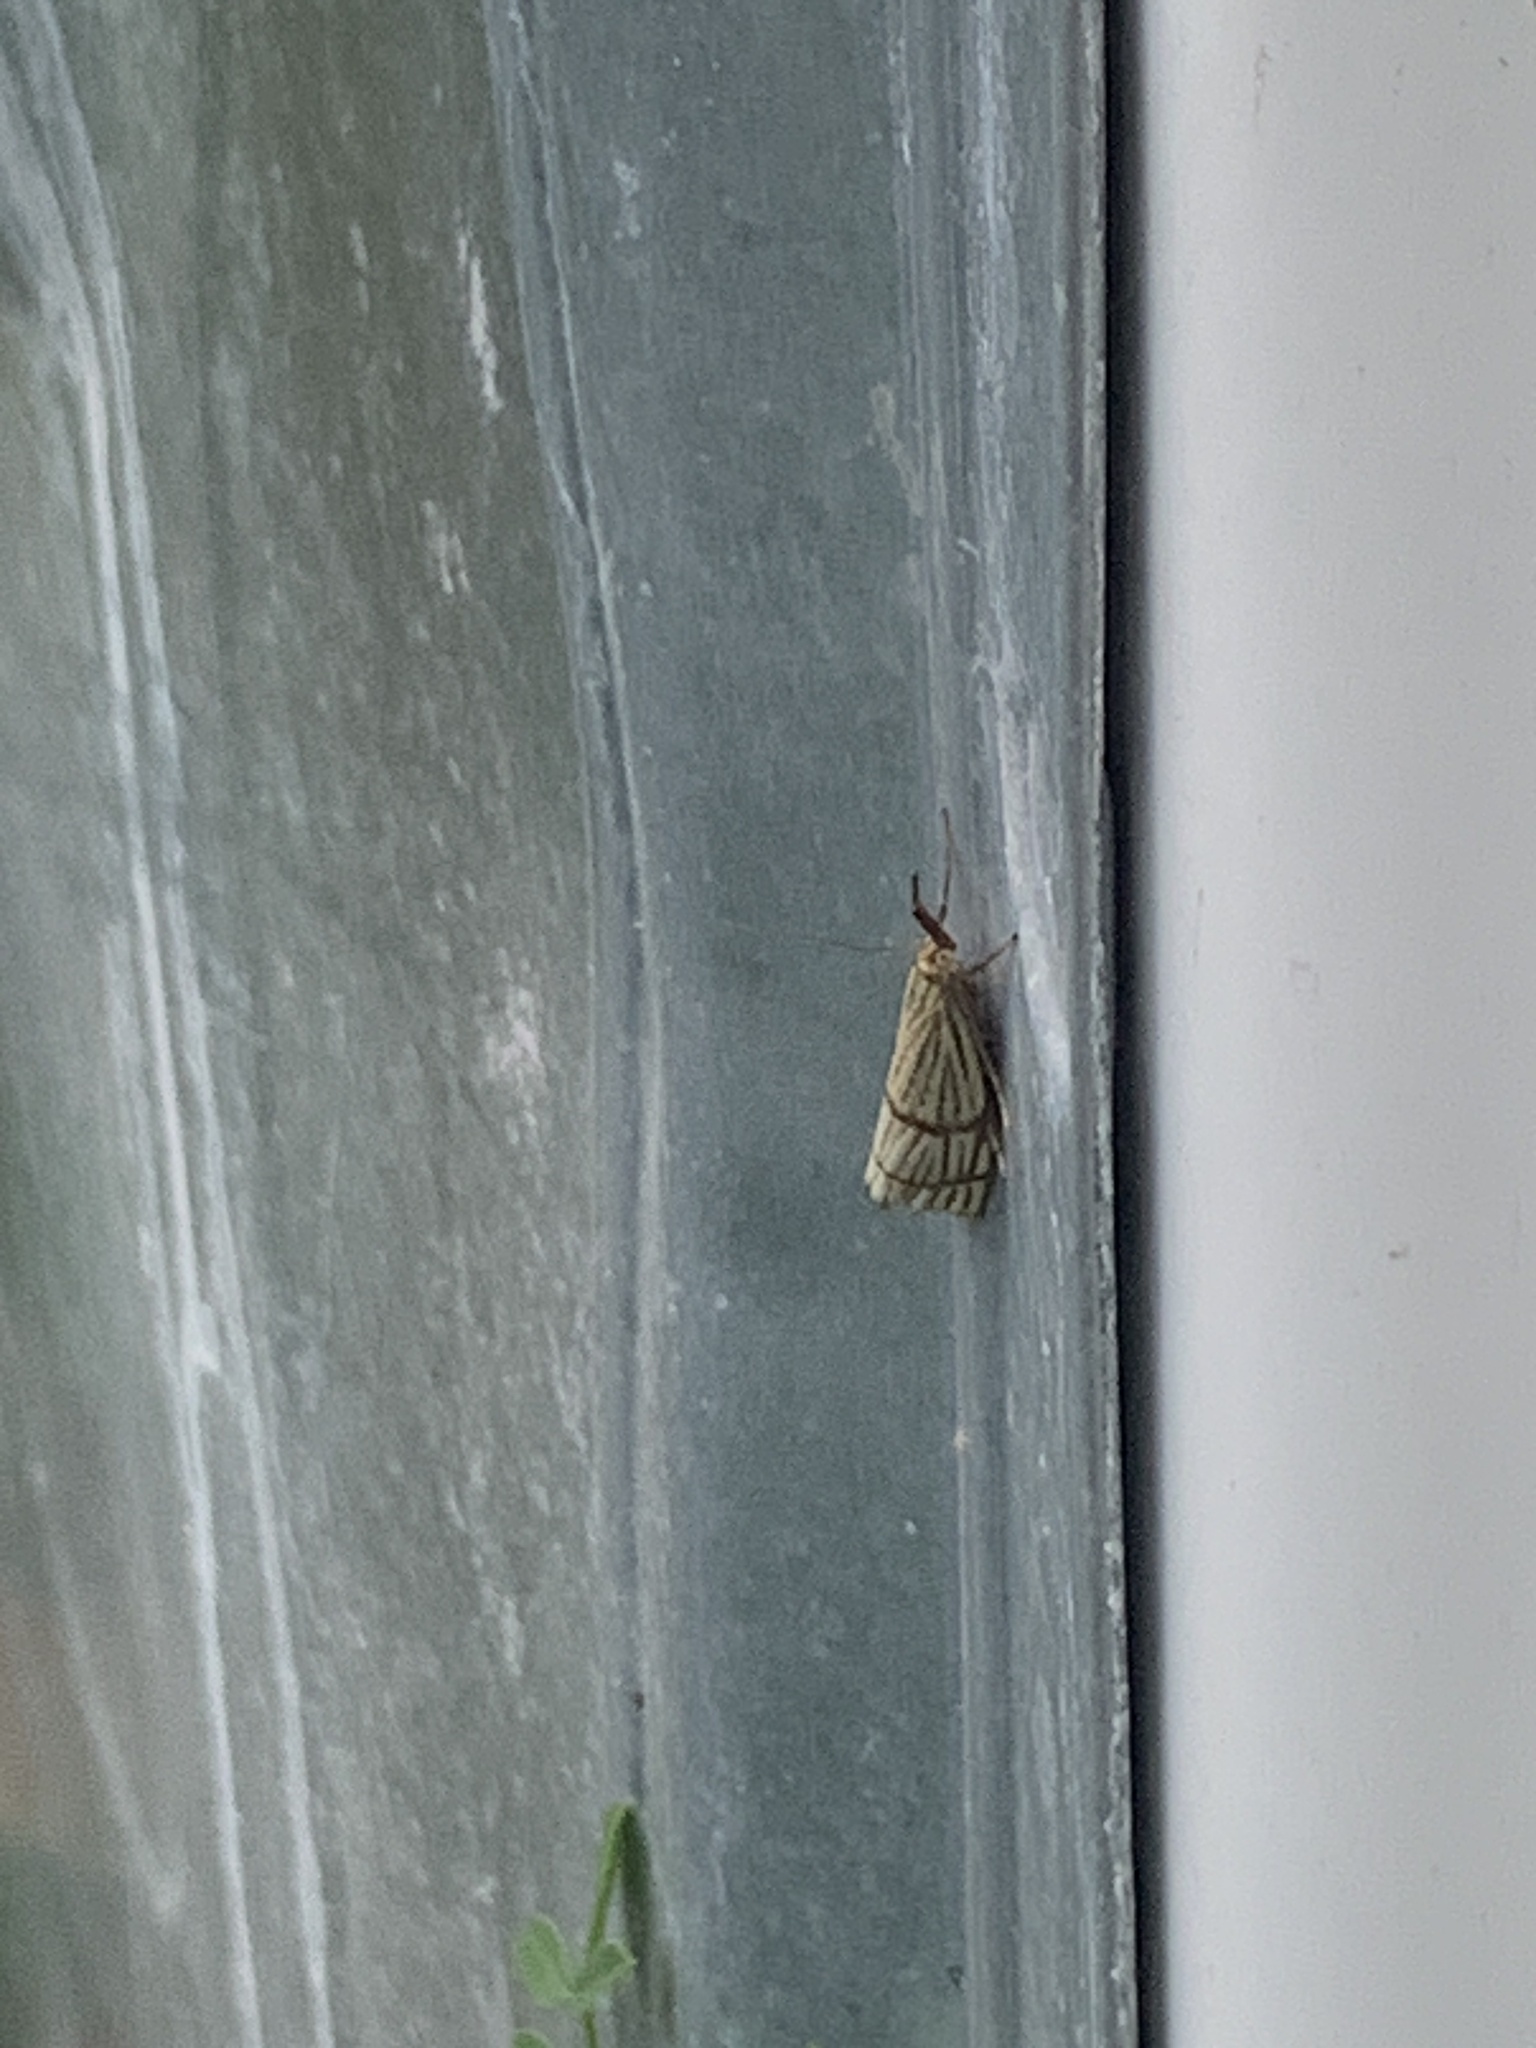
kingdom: Animalia
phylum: Arthropoda
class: Insecta
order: Lepidoptera
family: Crambidae
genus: Chrysocrambus
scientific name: Chrysocrambus linetella
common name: Orange-bar grass-veneer
